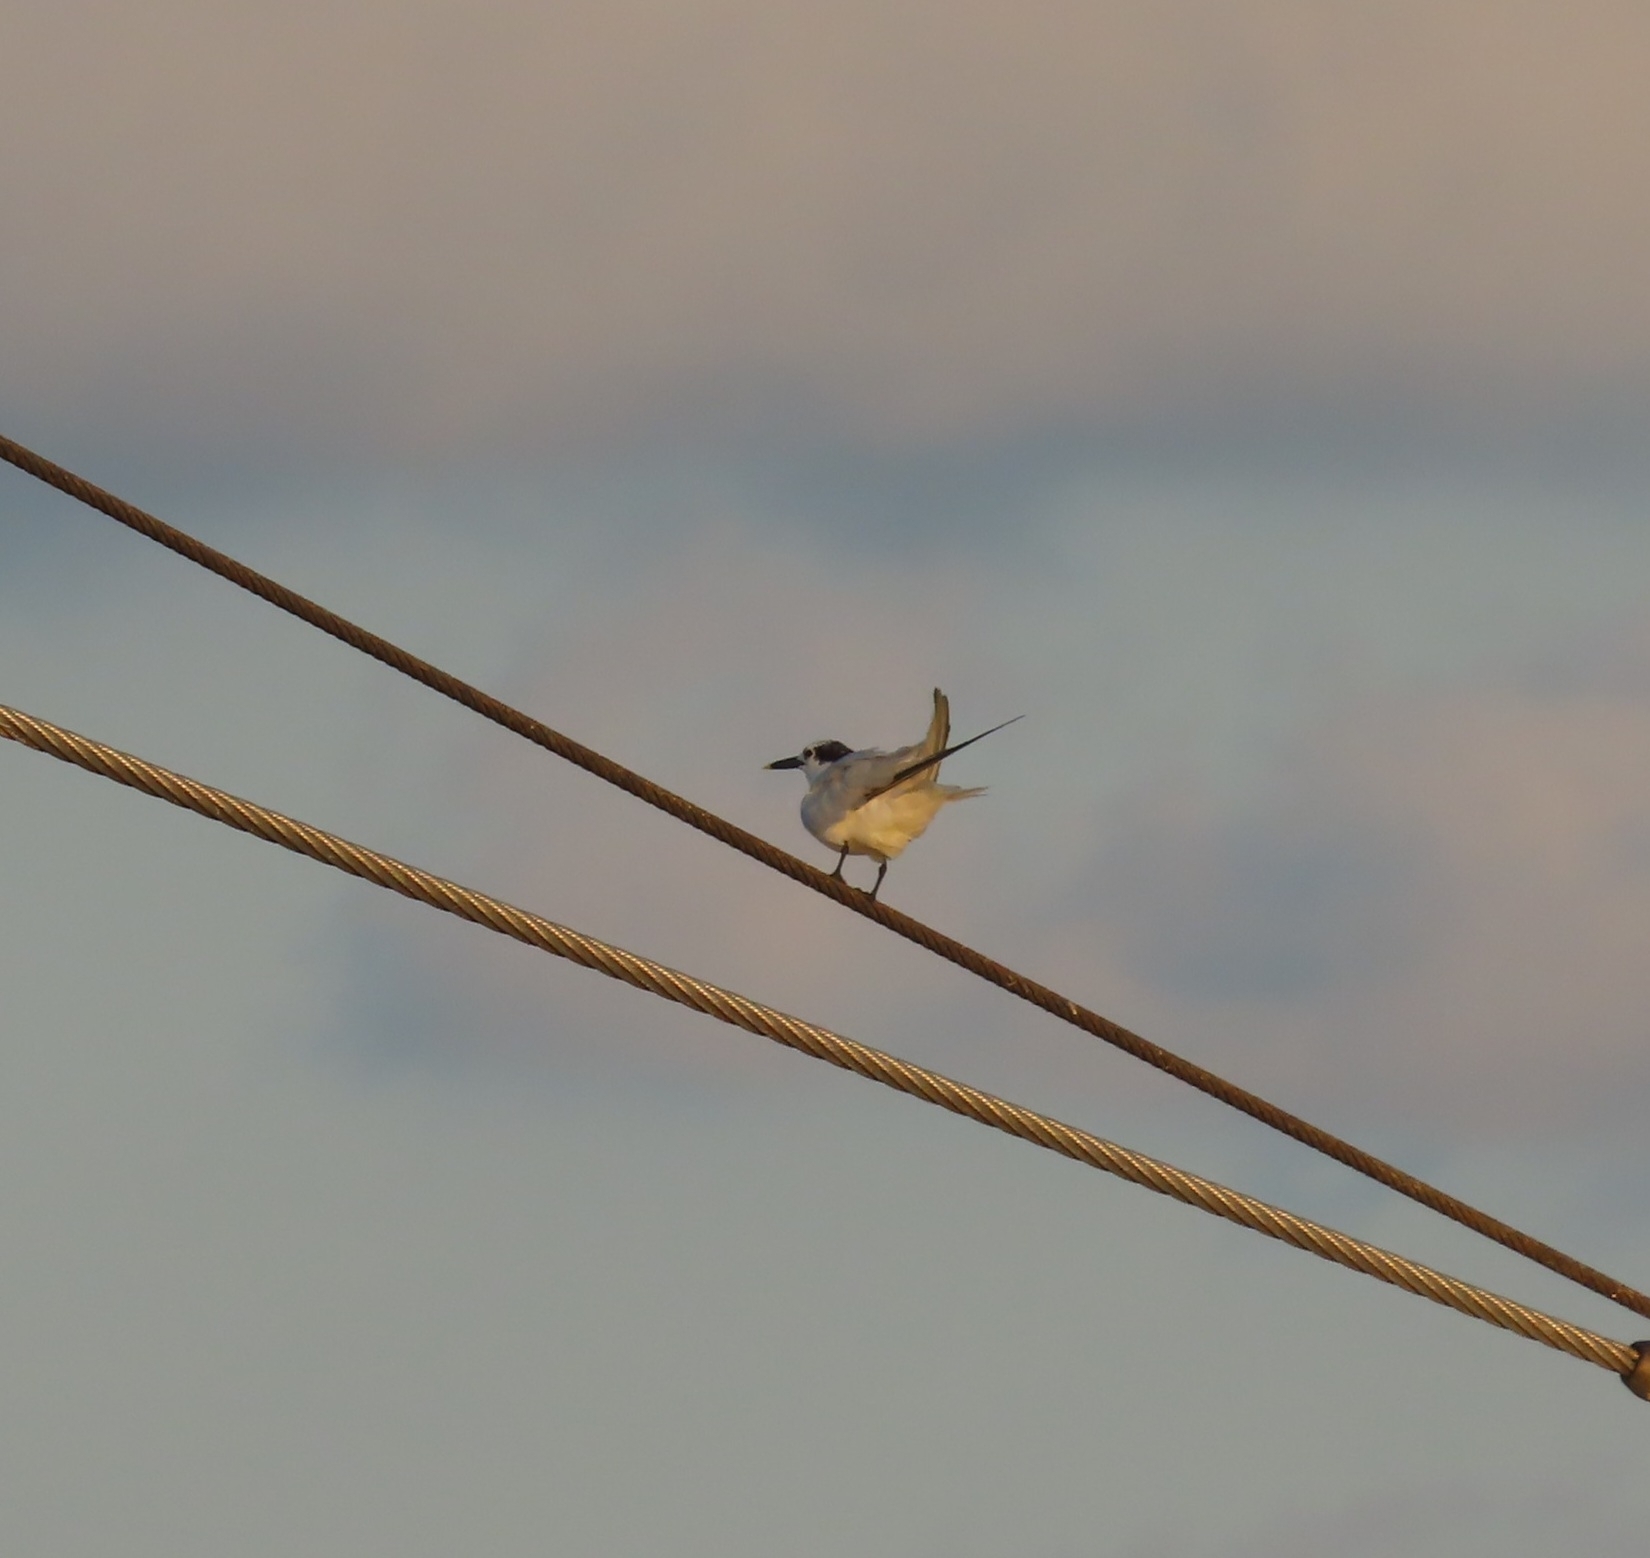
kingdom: Animalia
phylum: Chordata
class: Aves
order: Charadriiformes
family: Laridae
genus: Thalasseus
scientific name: Thalasseus sandvicensis
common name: Sandwich tern
